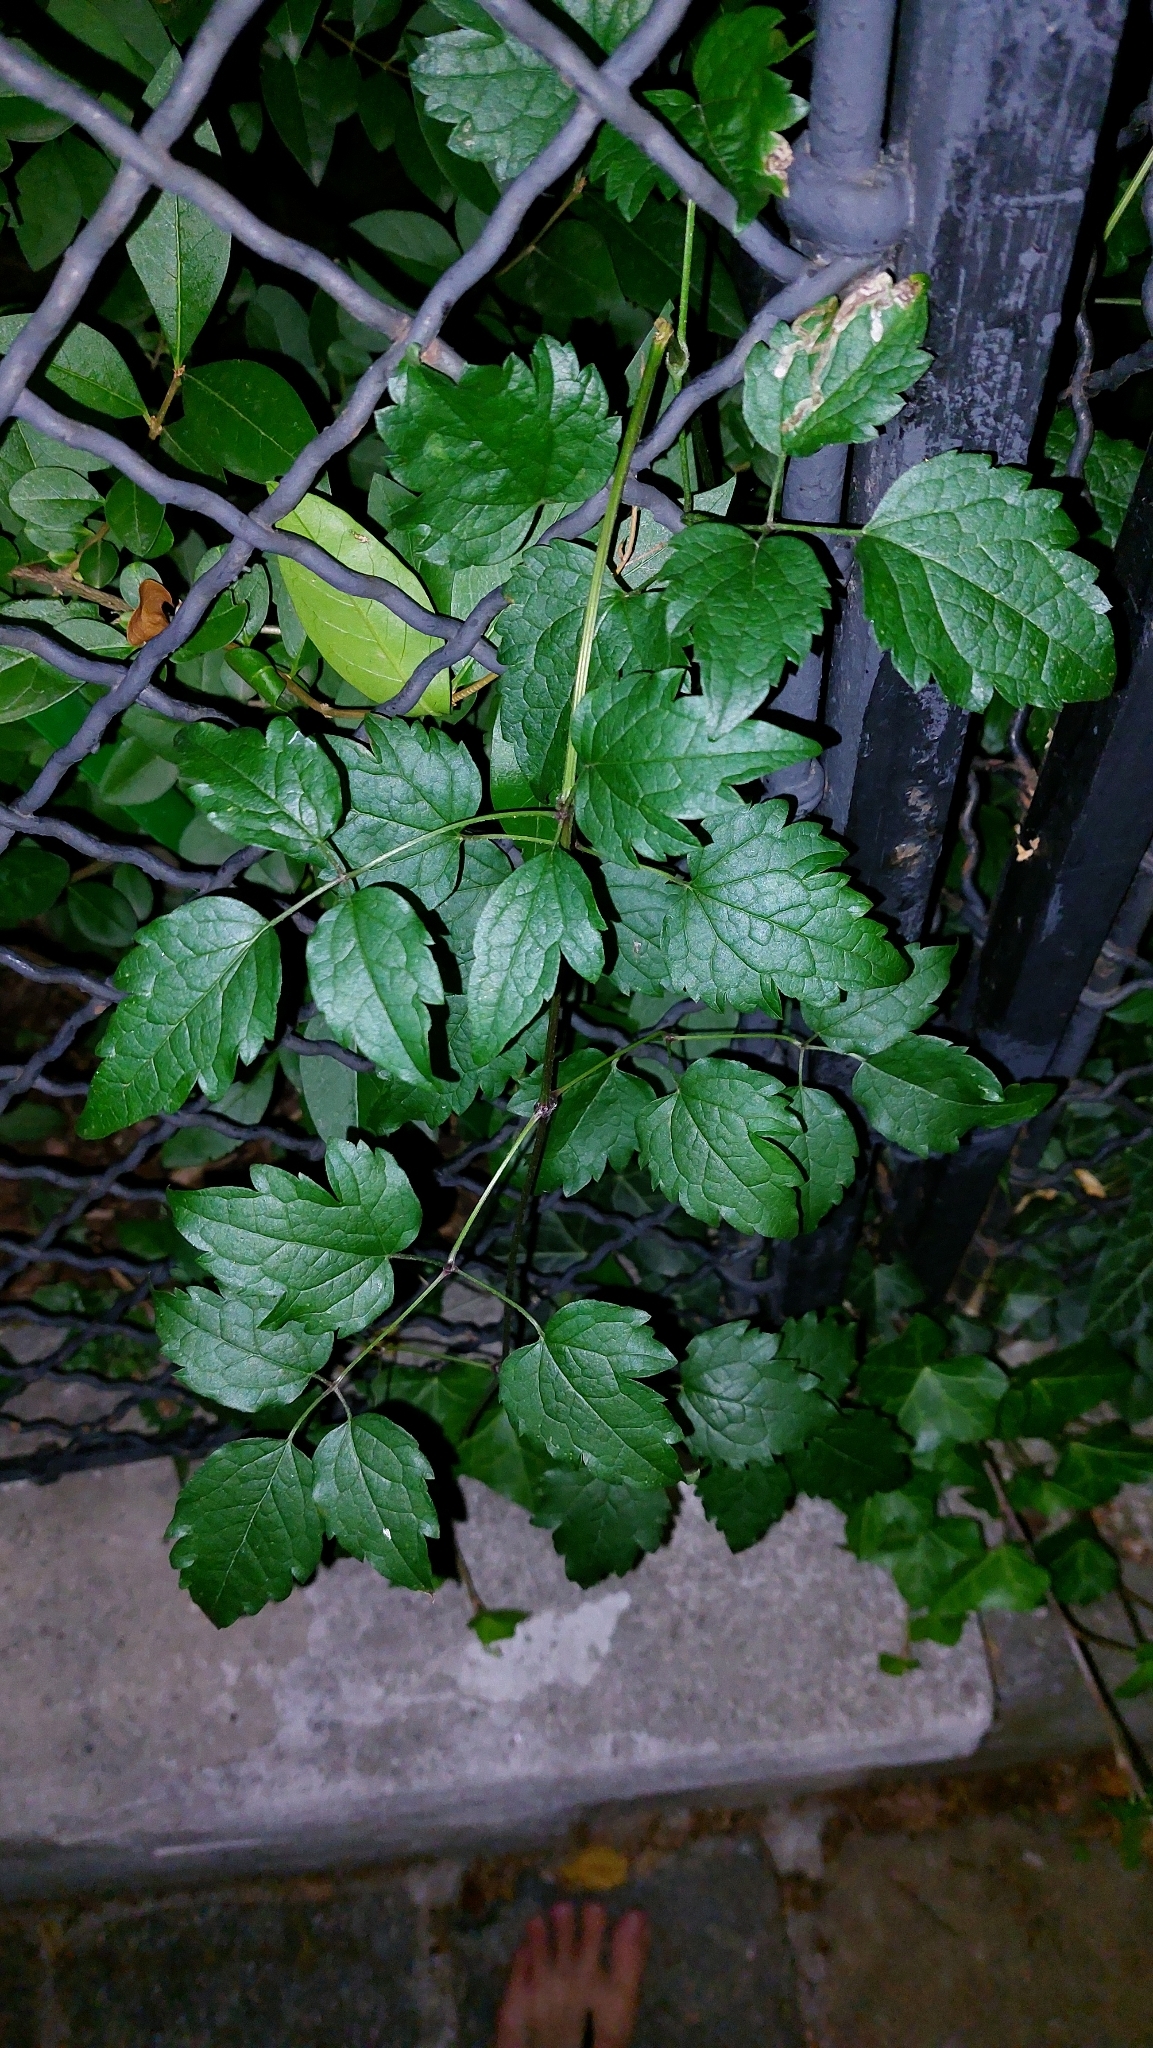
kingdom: Plantae
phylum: Tracheophyta
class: Magnoliopsida
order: Ranunculales
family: Ranunculaceae
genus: Clematis
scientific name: Clematis vitalba
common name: Evergreen clematis
